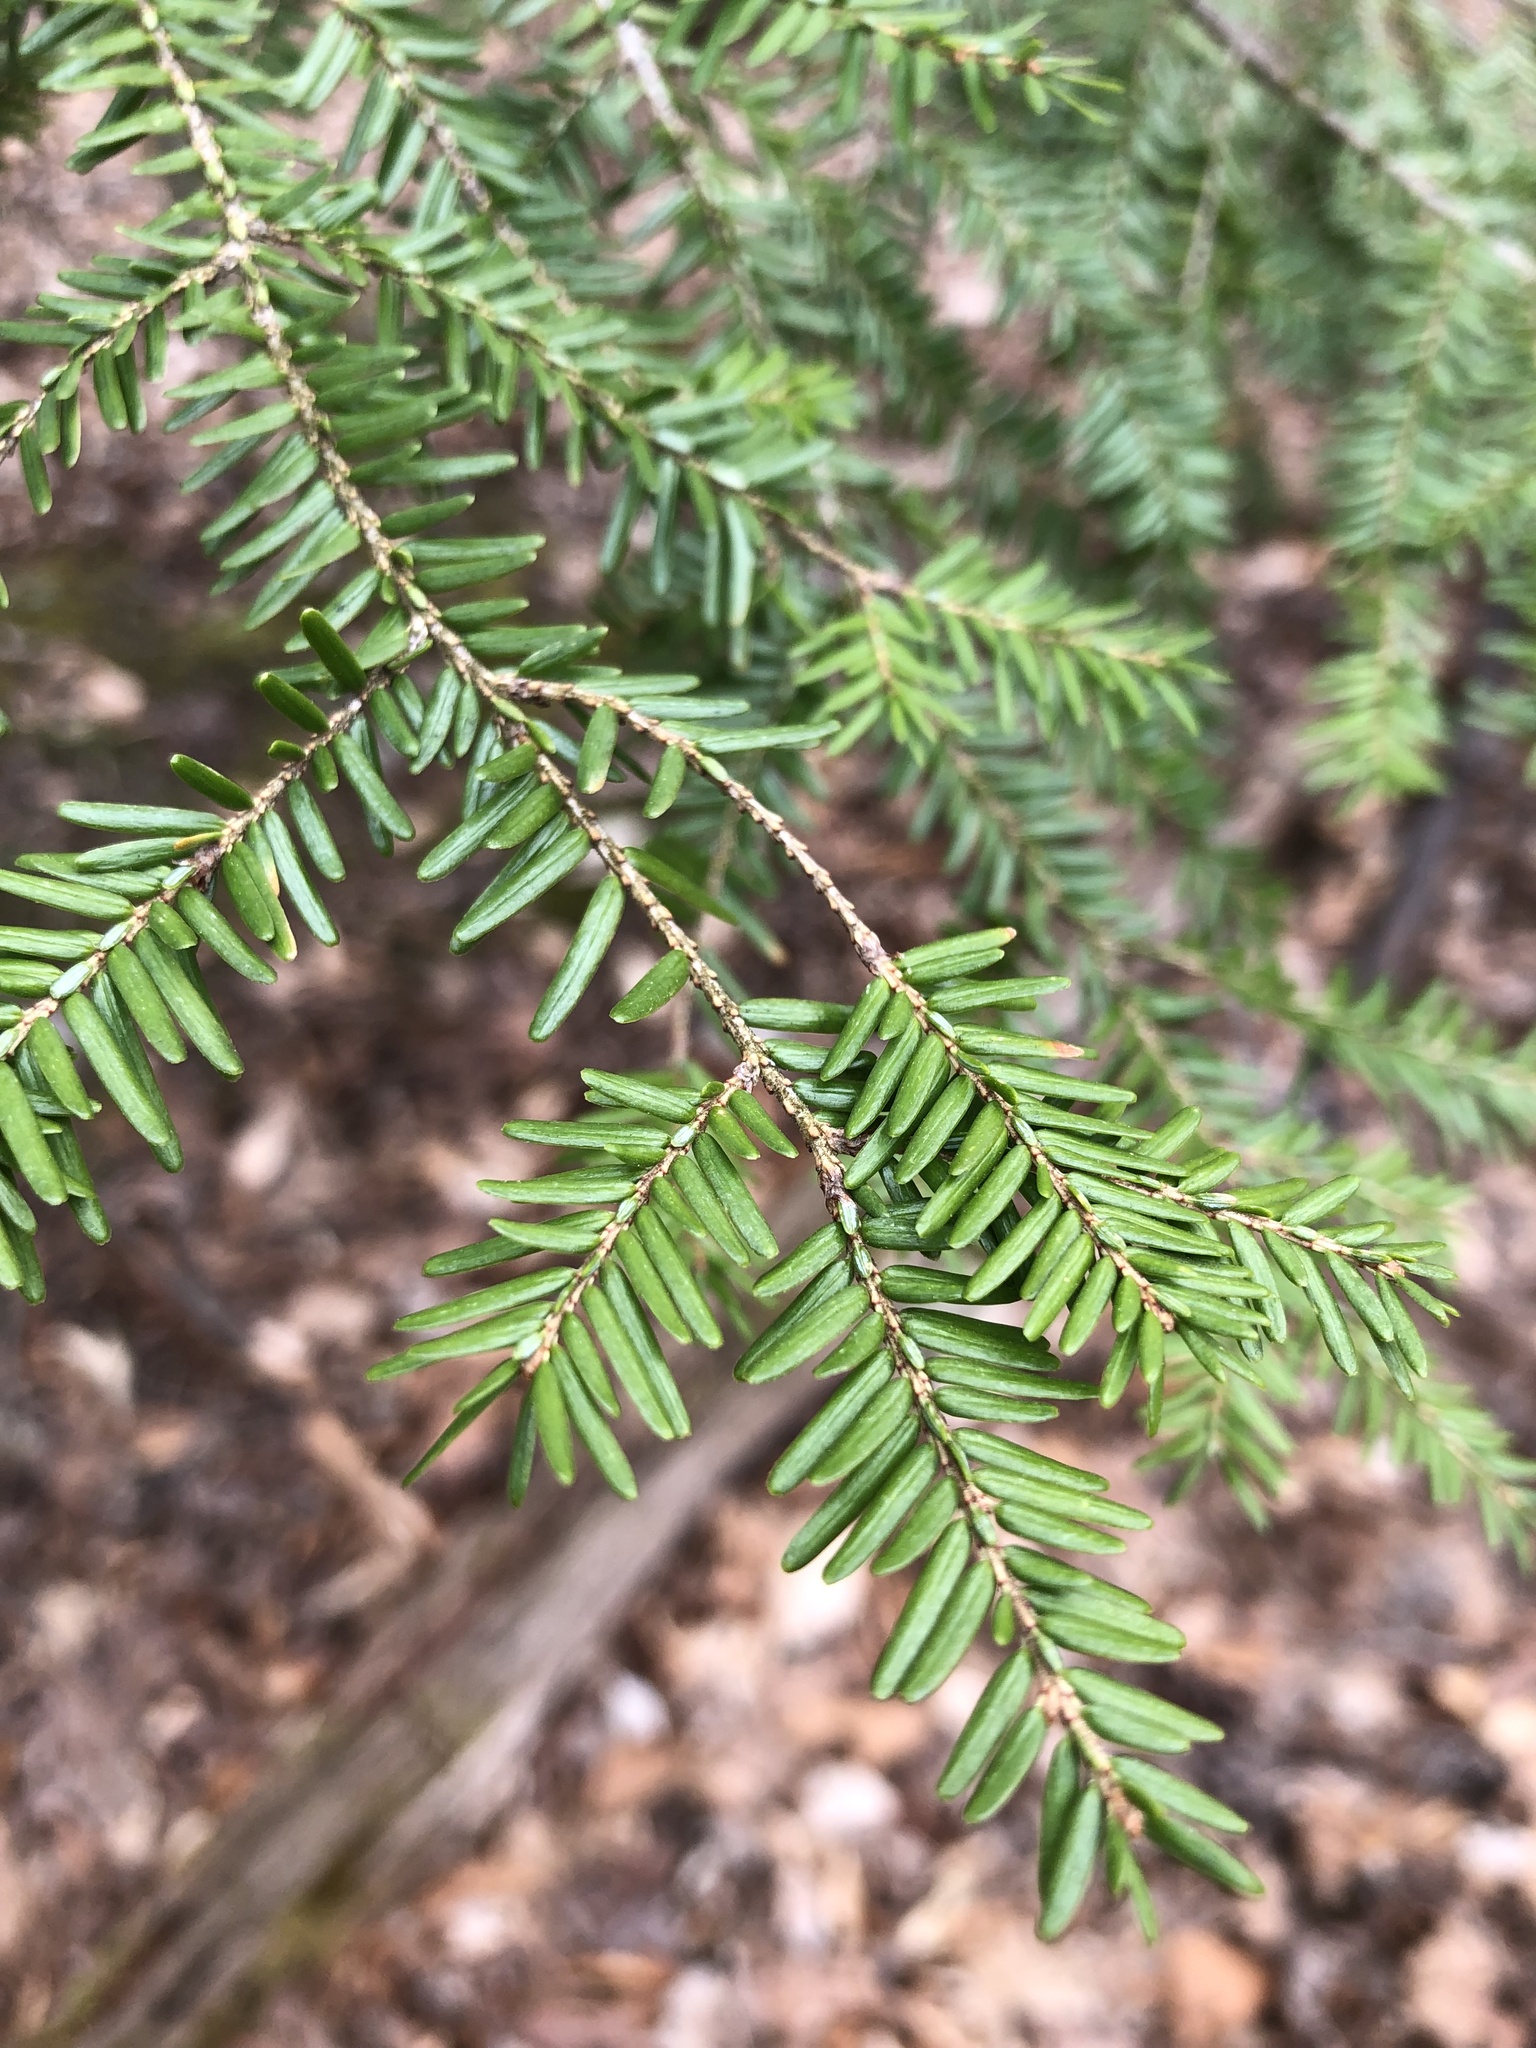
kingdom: Plantae
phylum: Tracheophyta
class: Pinopsida
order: Pinales
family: Pinaceae
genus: Tsuga
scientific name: Tsuga canadensis
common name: Eastern hemlock
